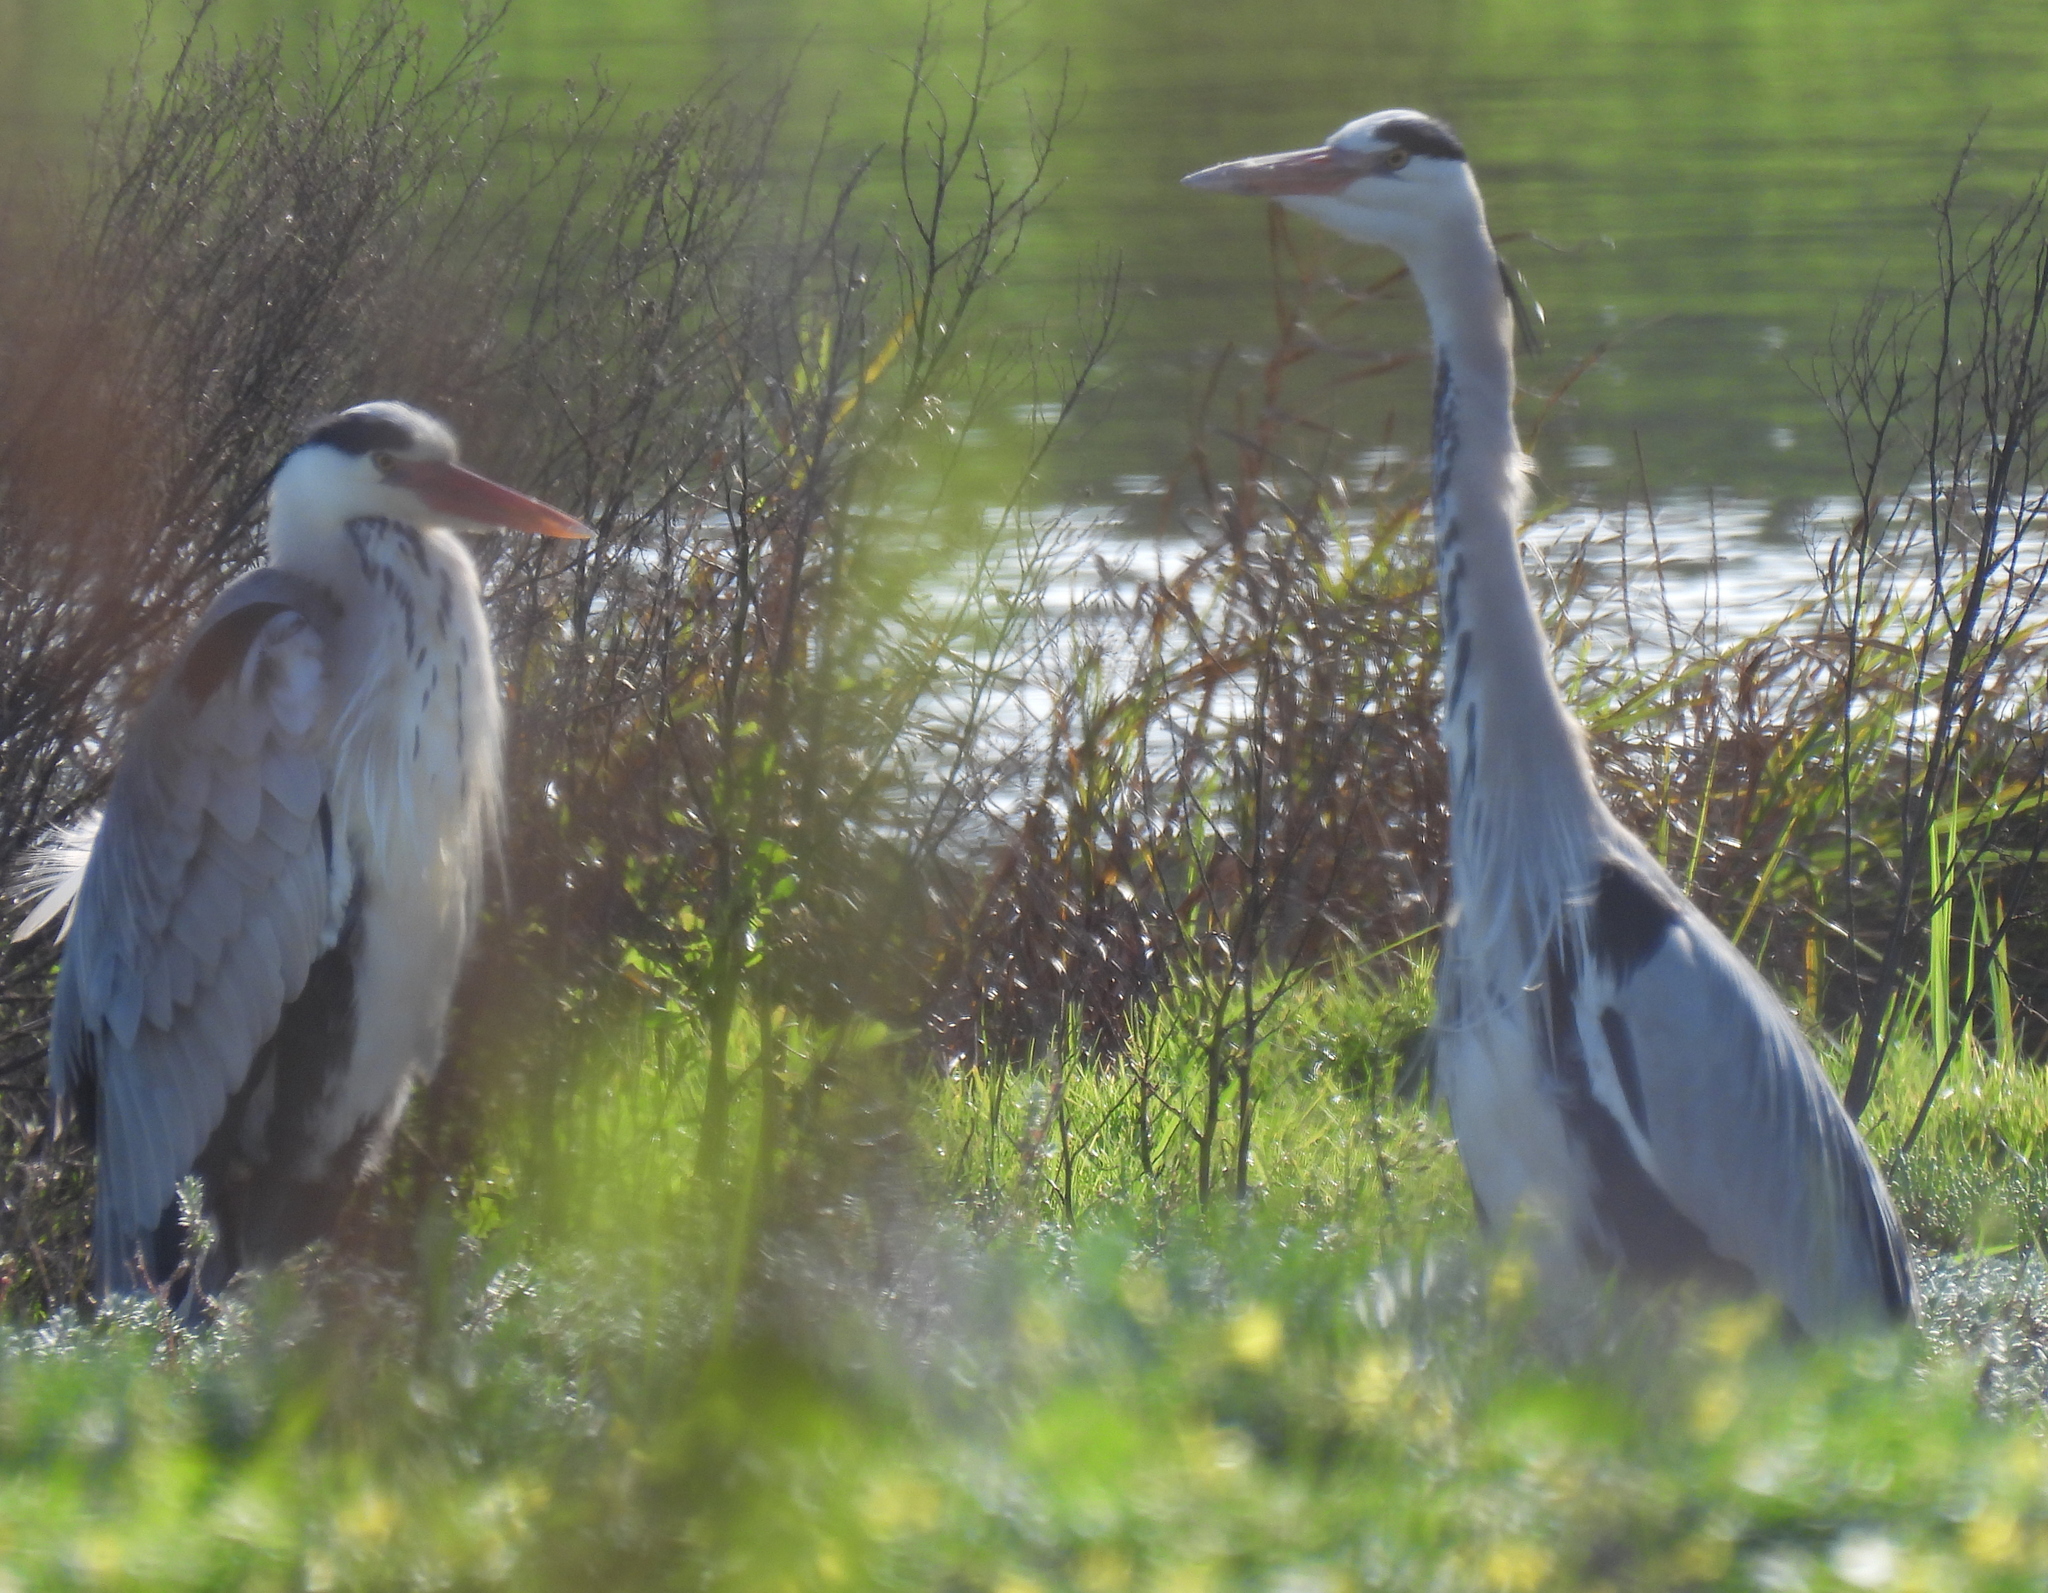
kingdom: Animalia
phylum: Chordata
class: Aves
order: Pelecaniformes
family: Ardeidae
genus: Ardea
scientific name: Ardea cinerea
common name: Grey heron
